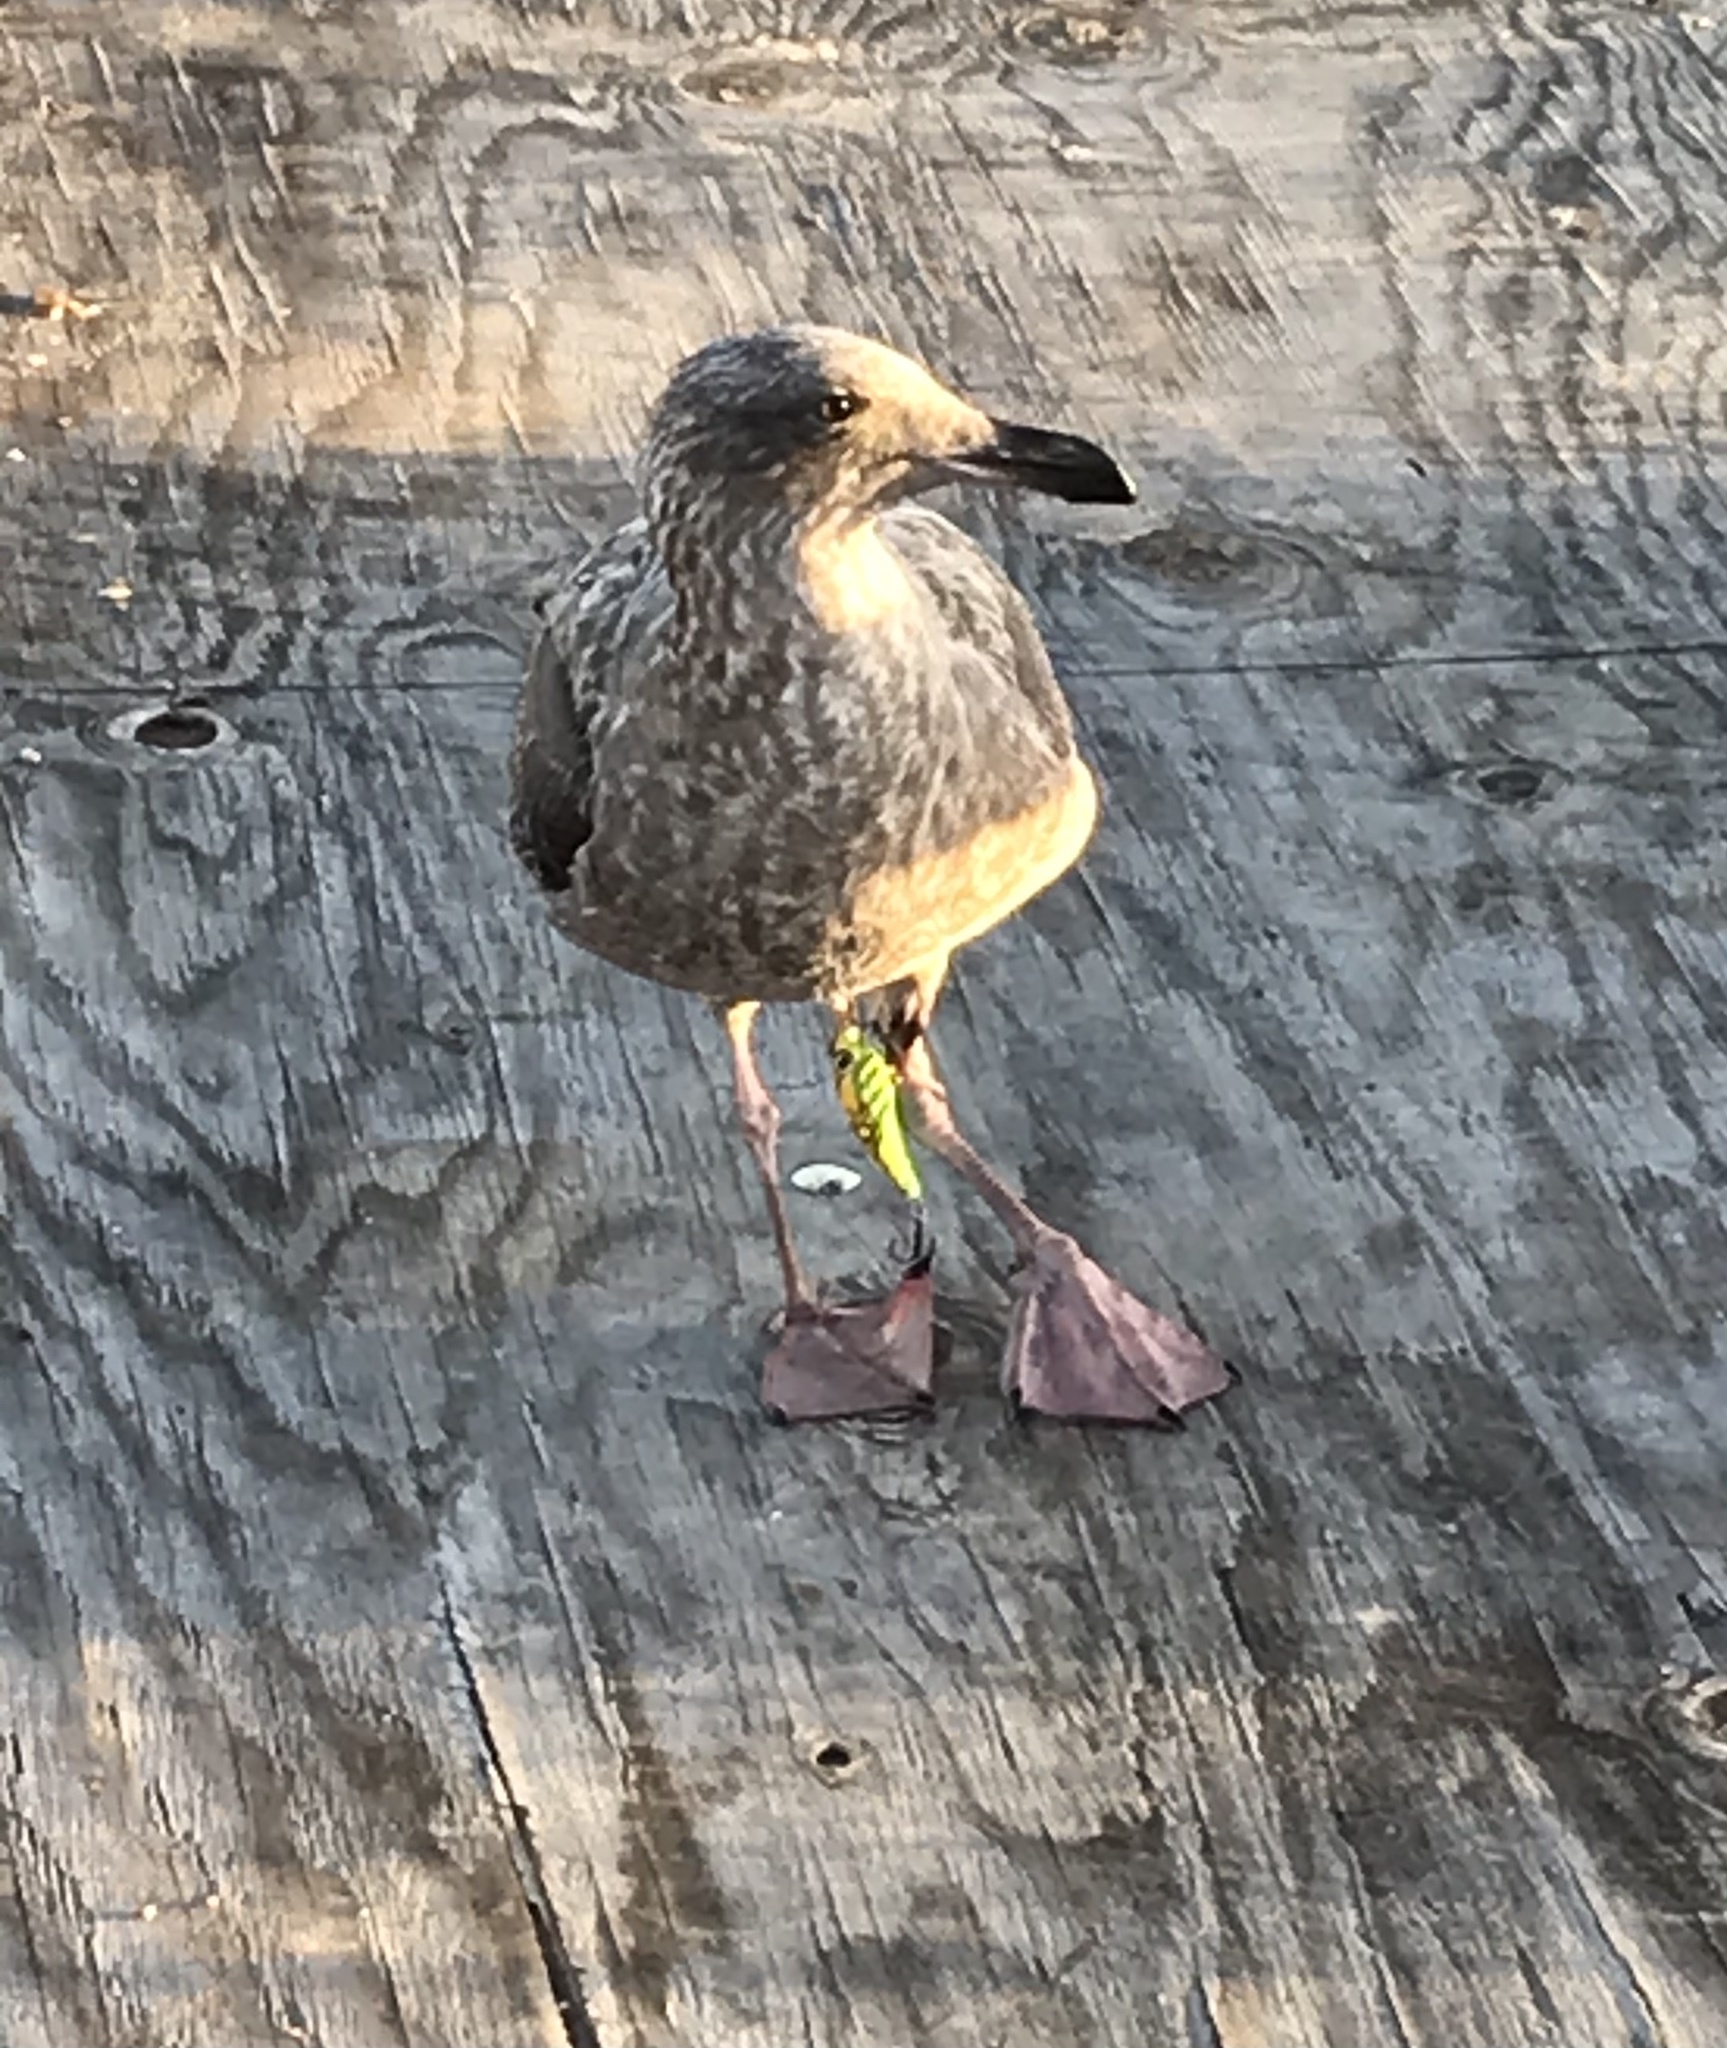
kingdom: Animalia
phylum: Chordata
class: Aves
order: Charadriiformes
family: Laridae
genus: Larus
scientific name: Larus occidentalis
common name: Western gull
